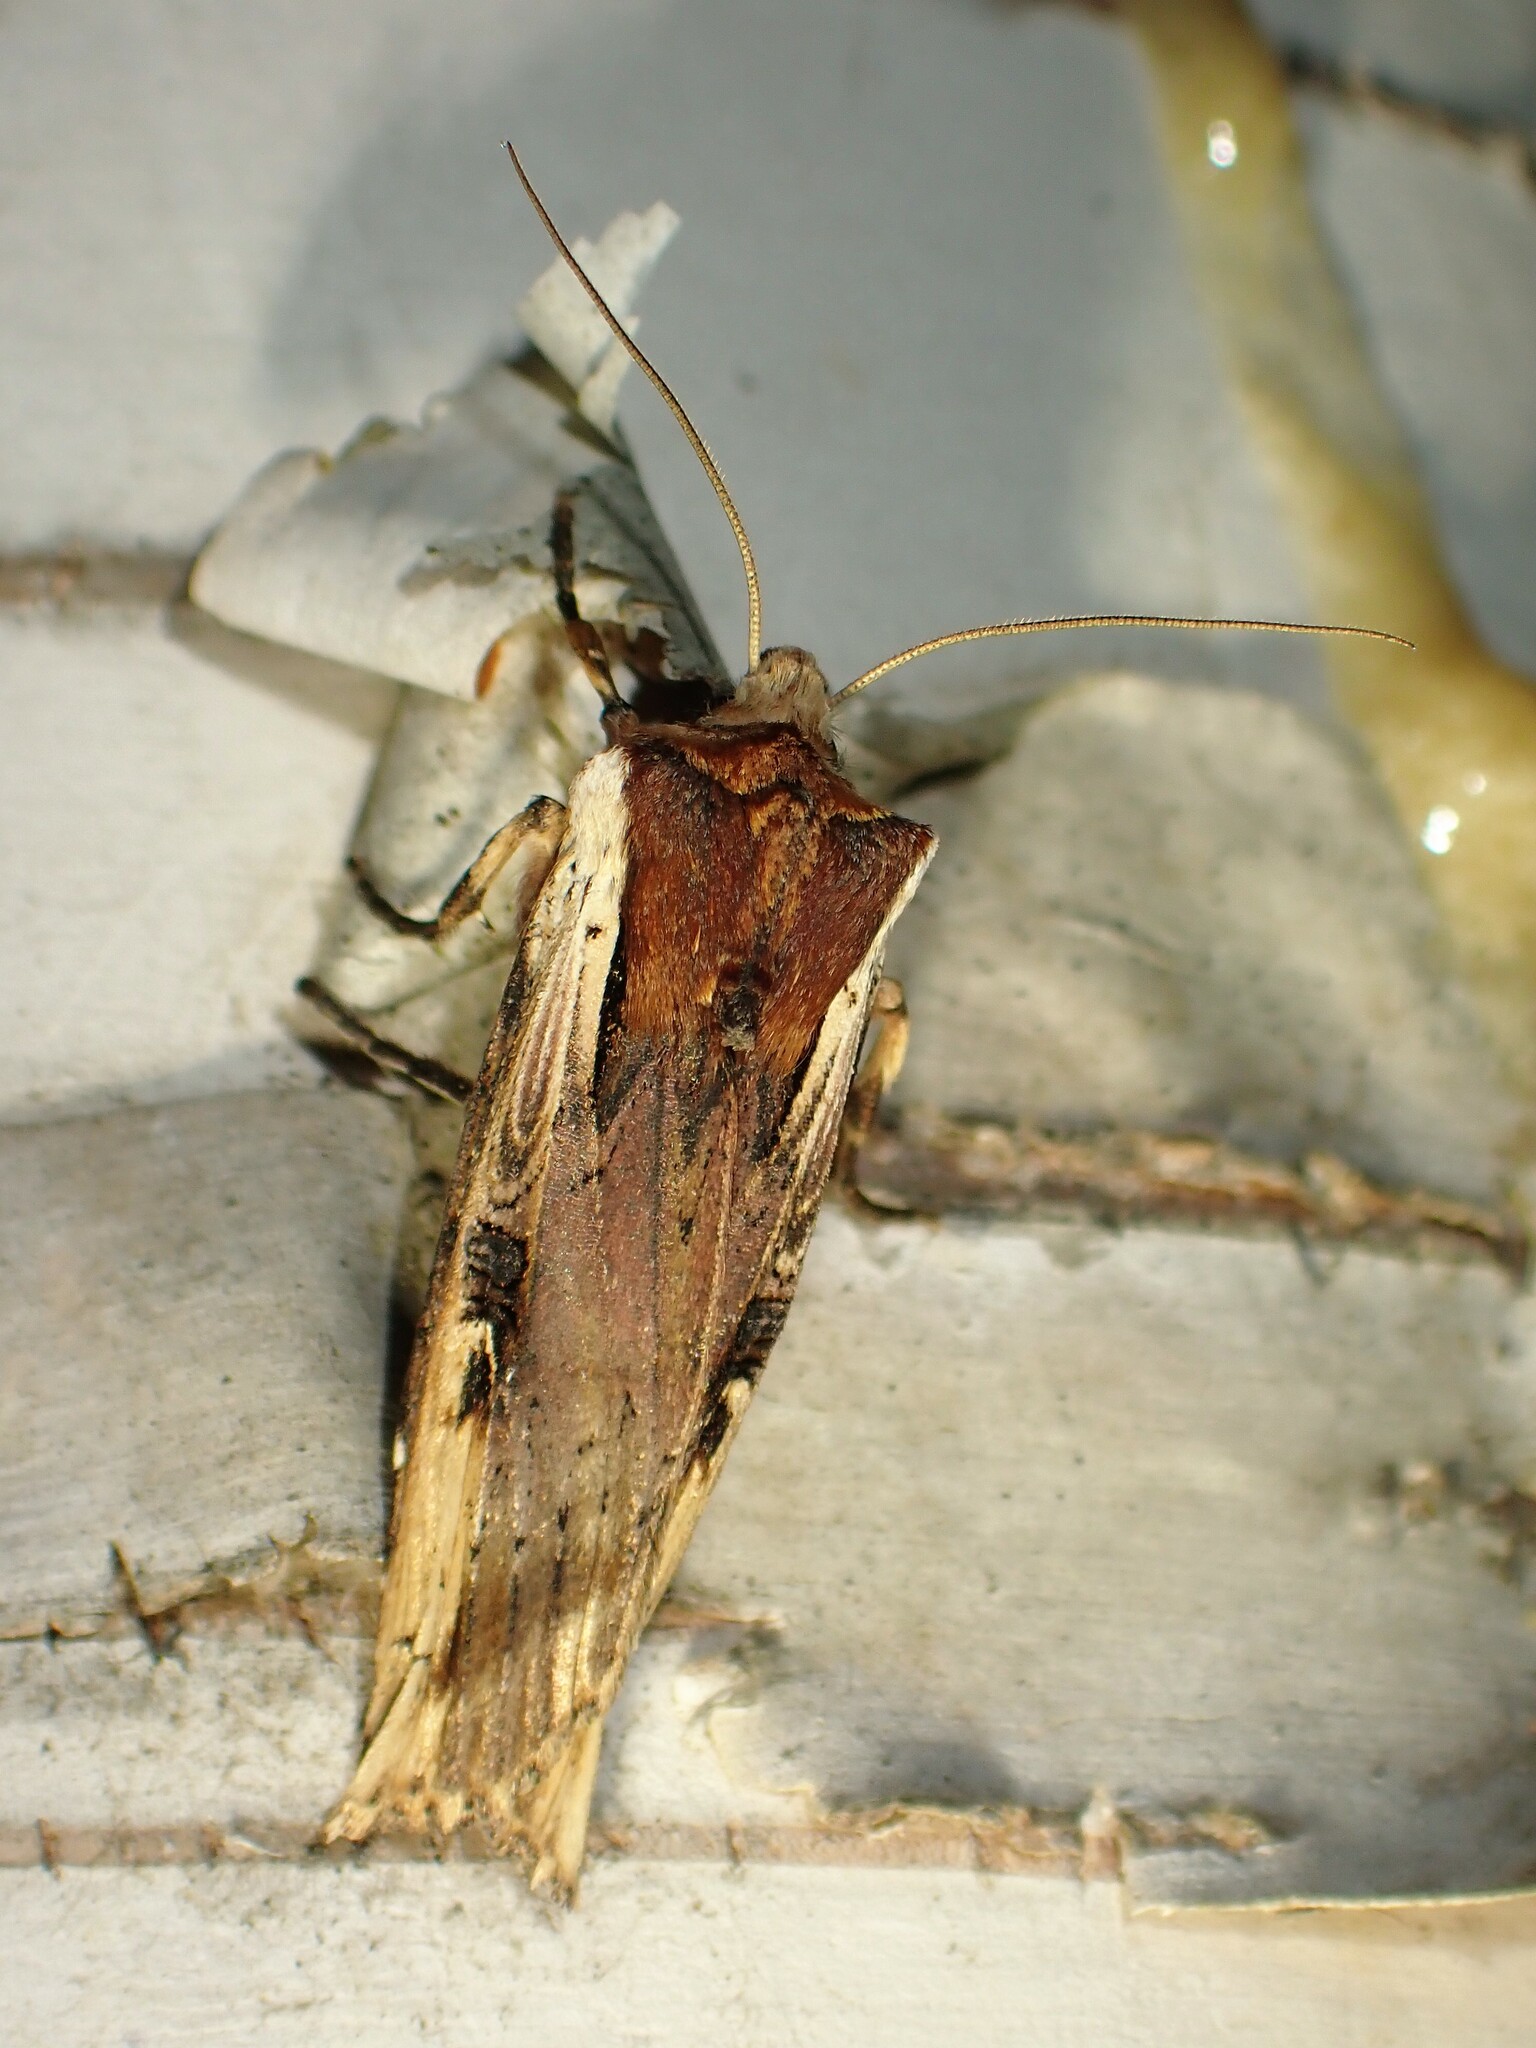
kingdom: Animalia
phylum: Arthropoda
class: Insecta
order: Lepidoptera
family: Noctuidae
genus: Xylena
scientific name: Xylena curvimacula
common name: Dot-and-dash swordgrass moth
